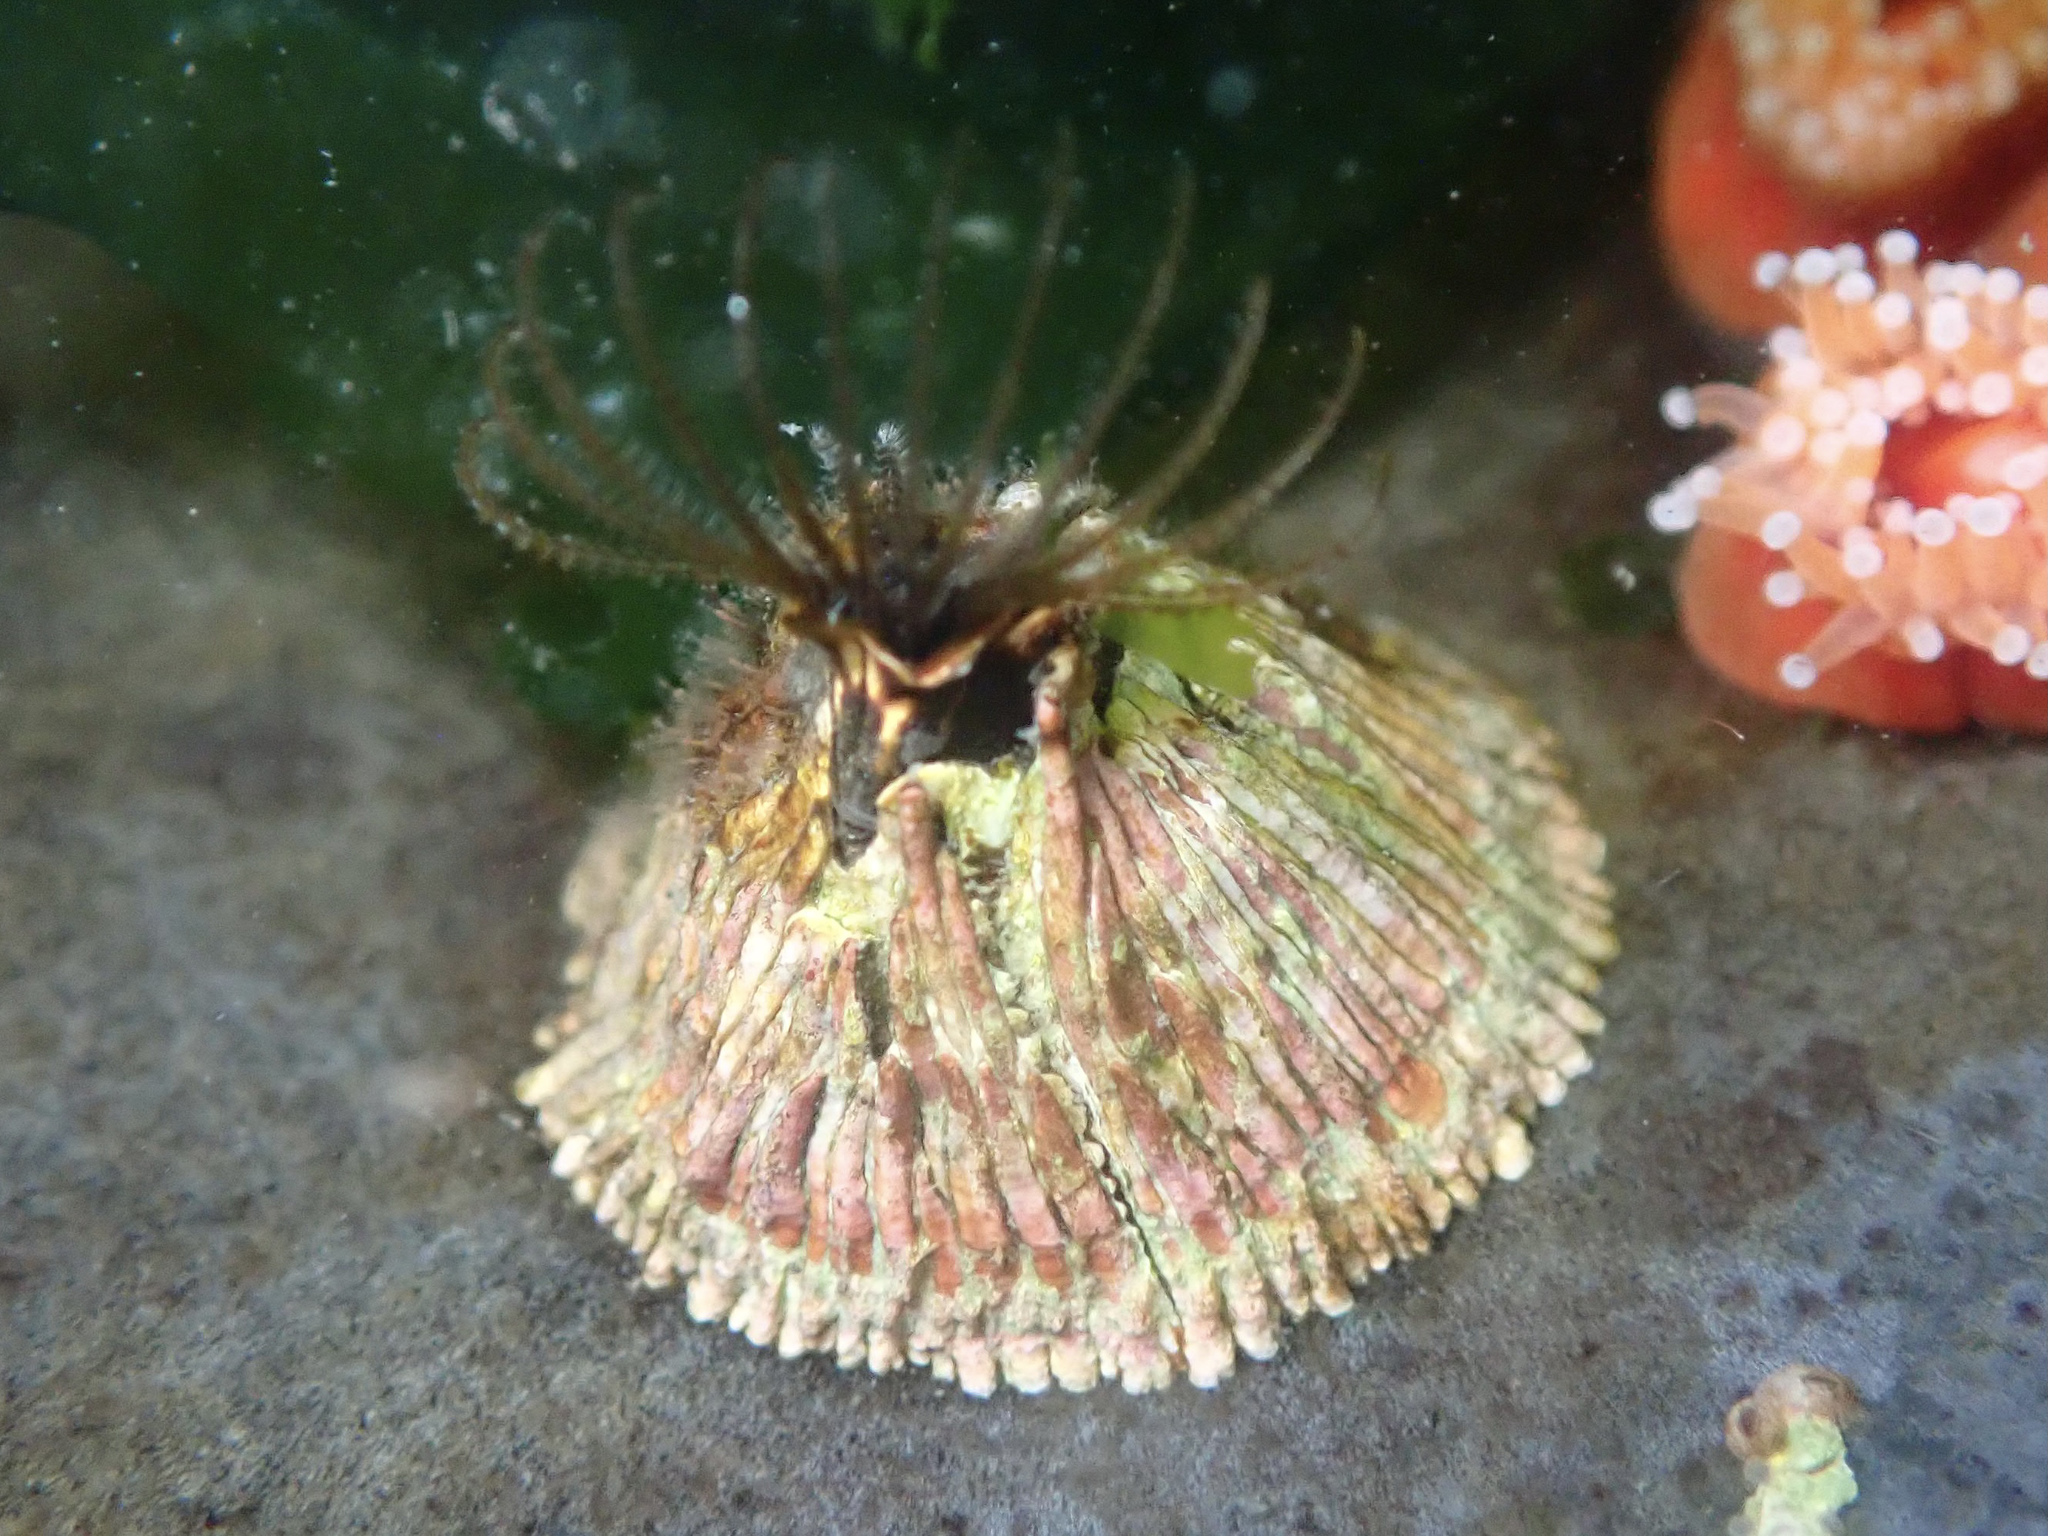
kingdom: Animalia
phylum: Arthropoda
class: Maxillopoda
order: Sessilia
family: Tetraclitidae
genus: Tetraclita
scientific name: Tetraclita rubescens
